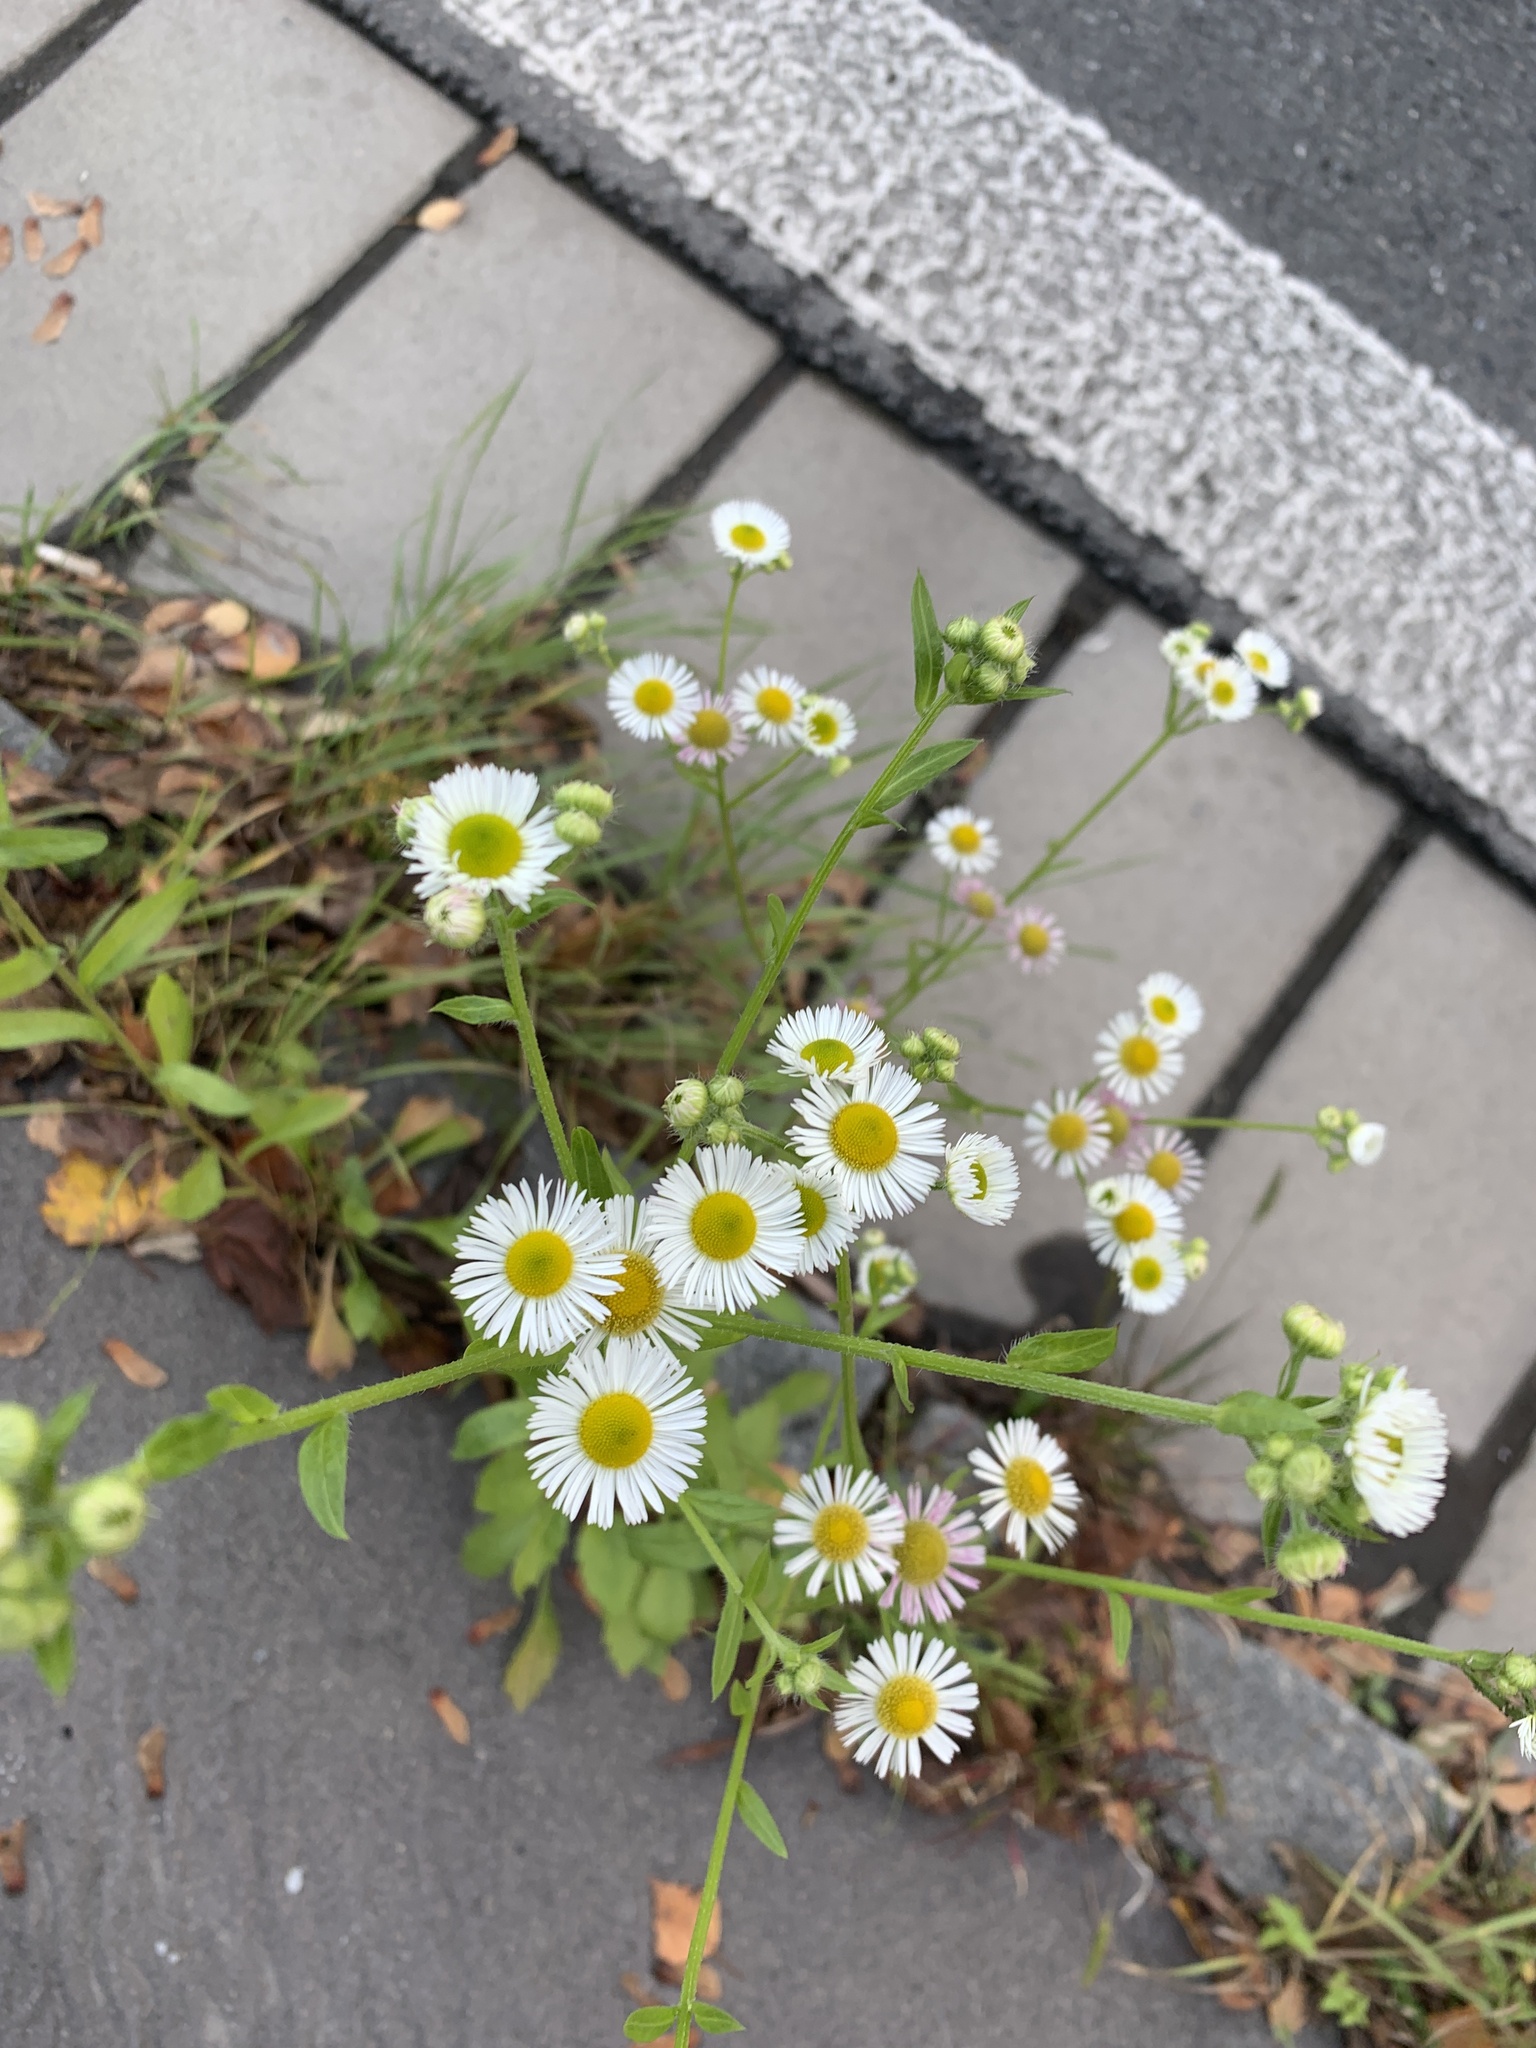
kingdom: Plantae
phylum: Tracheophyta
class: Magnoliopsida
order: Asterales
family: Asteraceae
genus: Erigeron
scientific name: Erigeron annuus
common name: Tall fleabane
